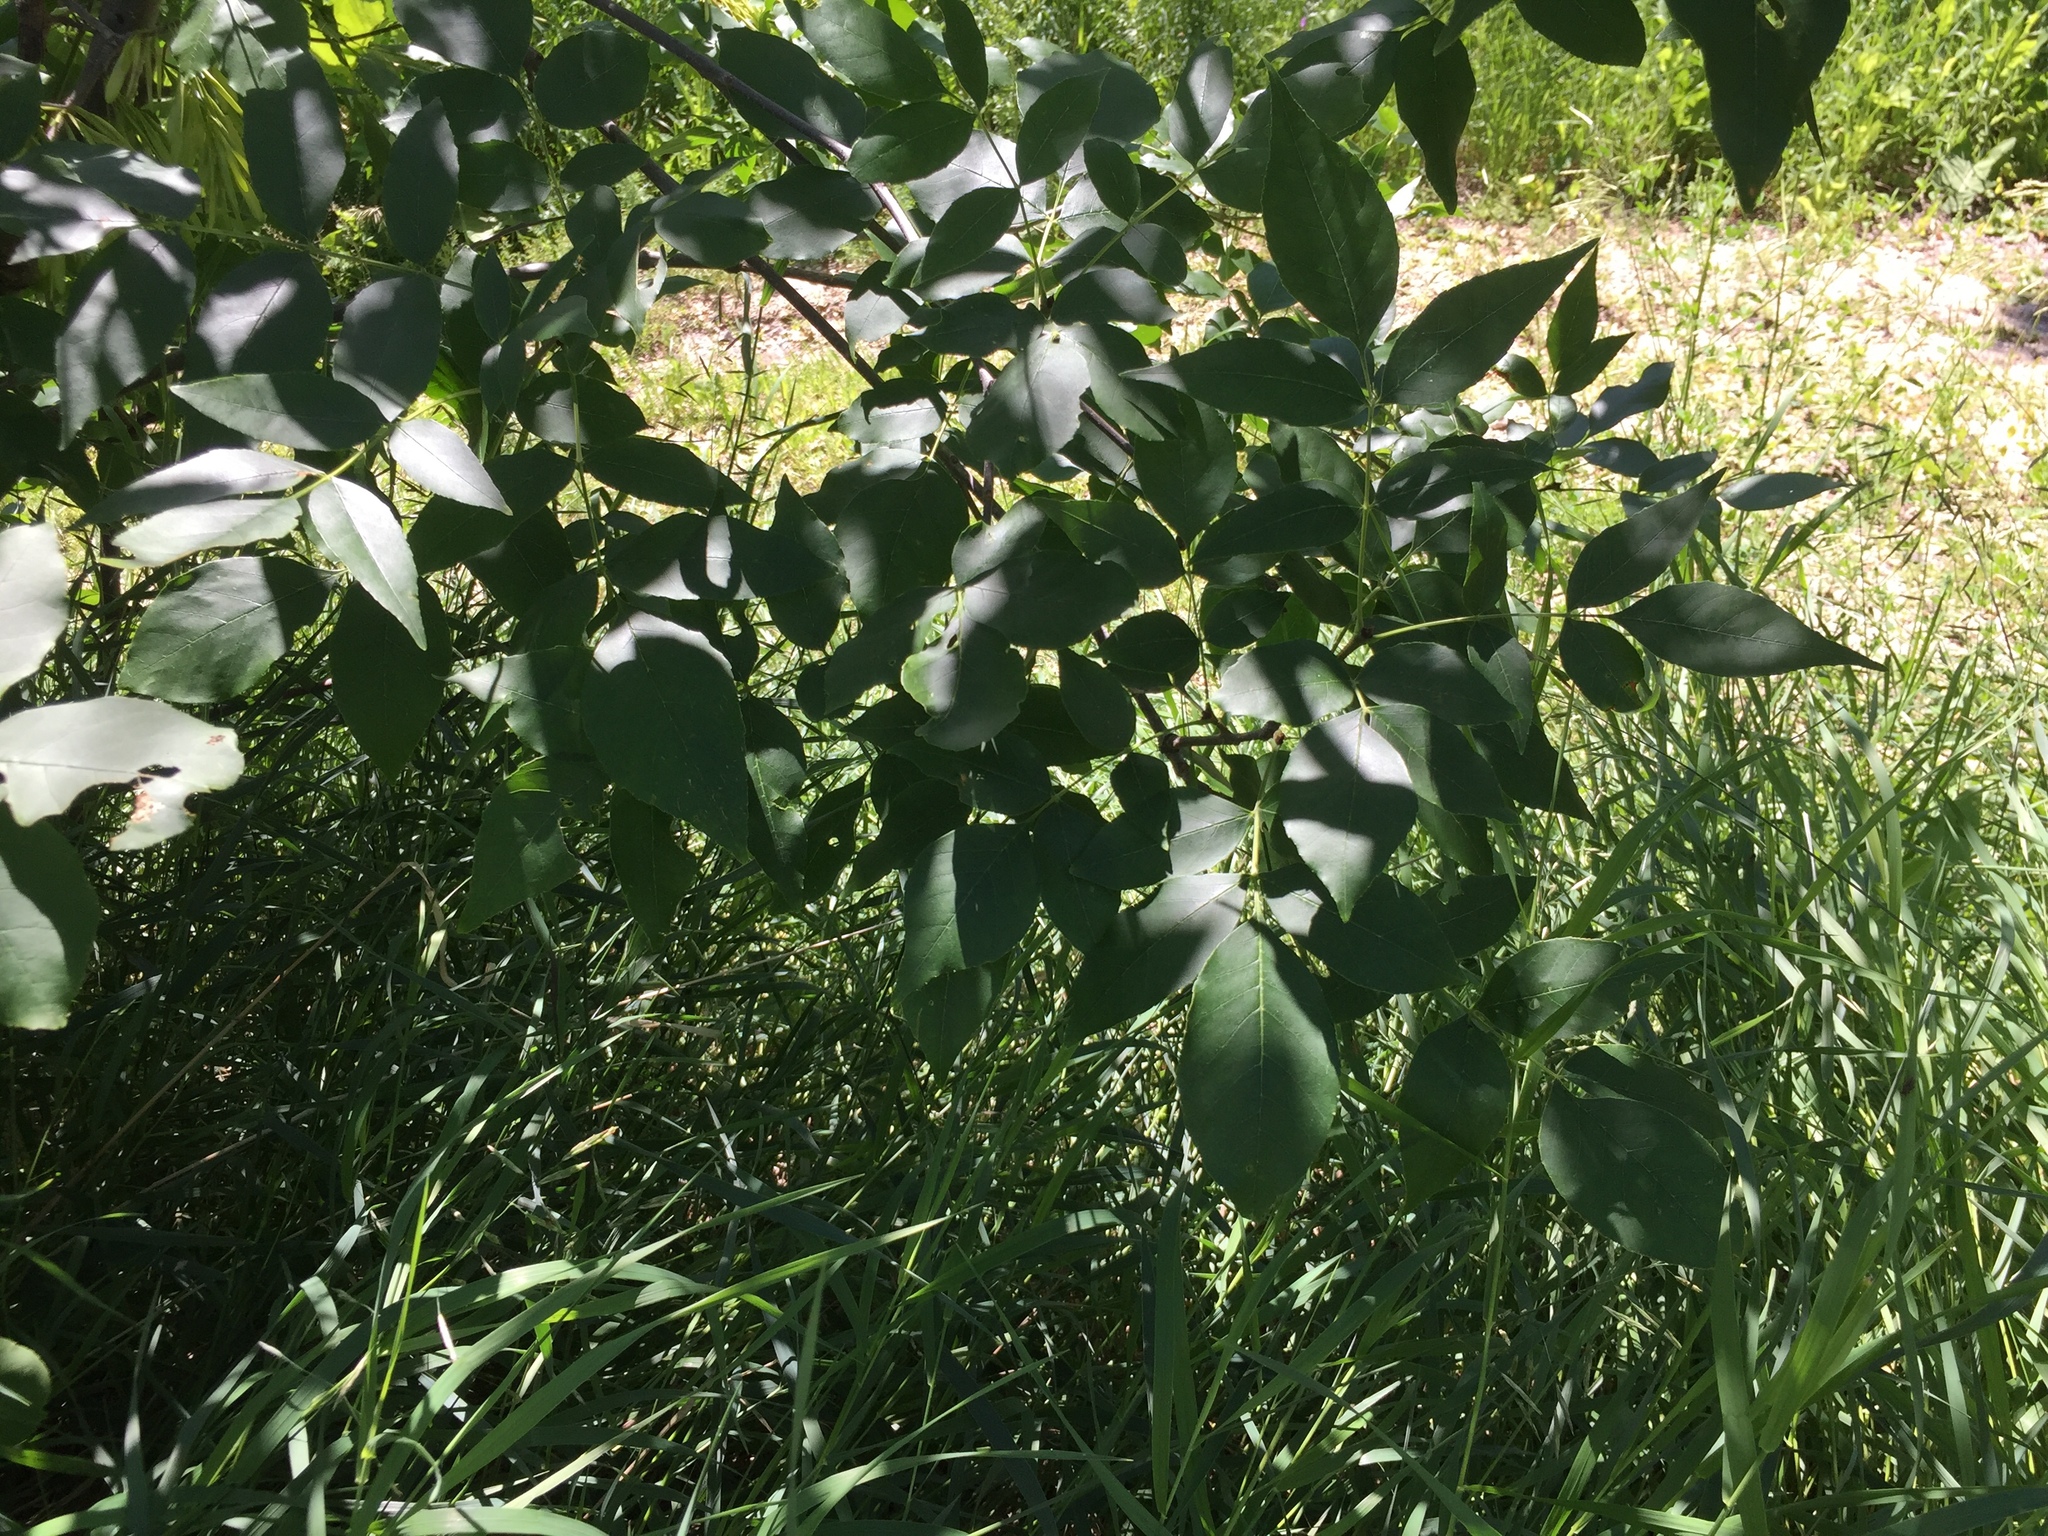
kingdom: Plantae
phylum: Tracheophyta
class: Magnoliopsida
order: Lamiales
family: Oleaceae
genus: Fraxinus
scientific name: Fraxinus pennsylvanica
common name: Green ash
